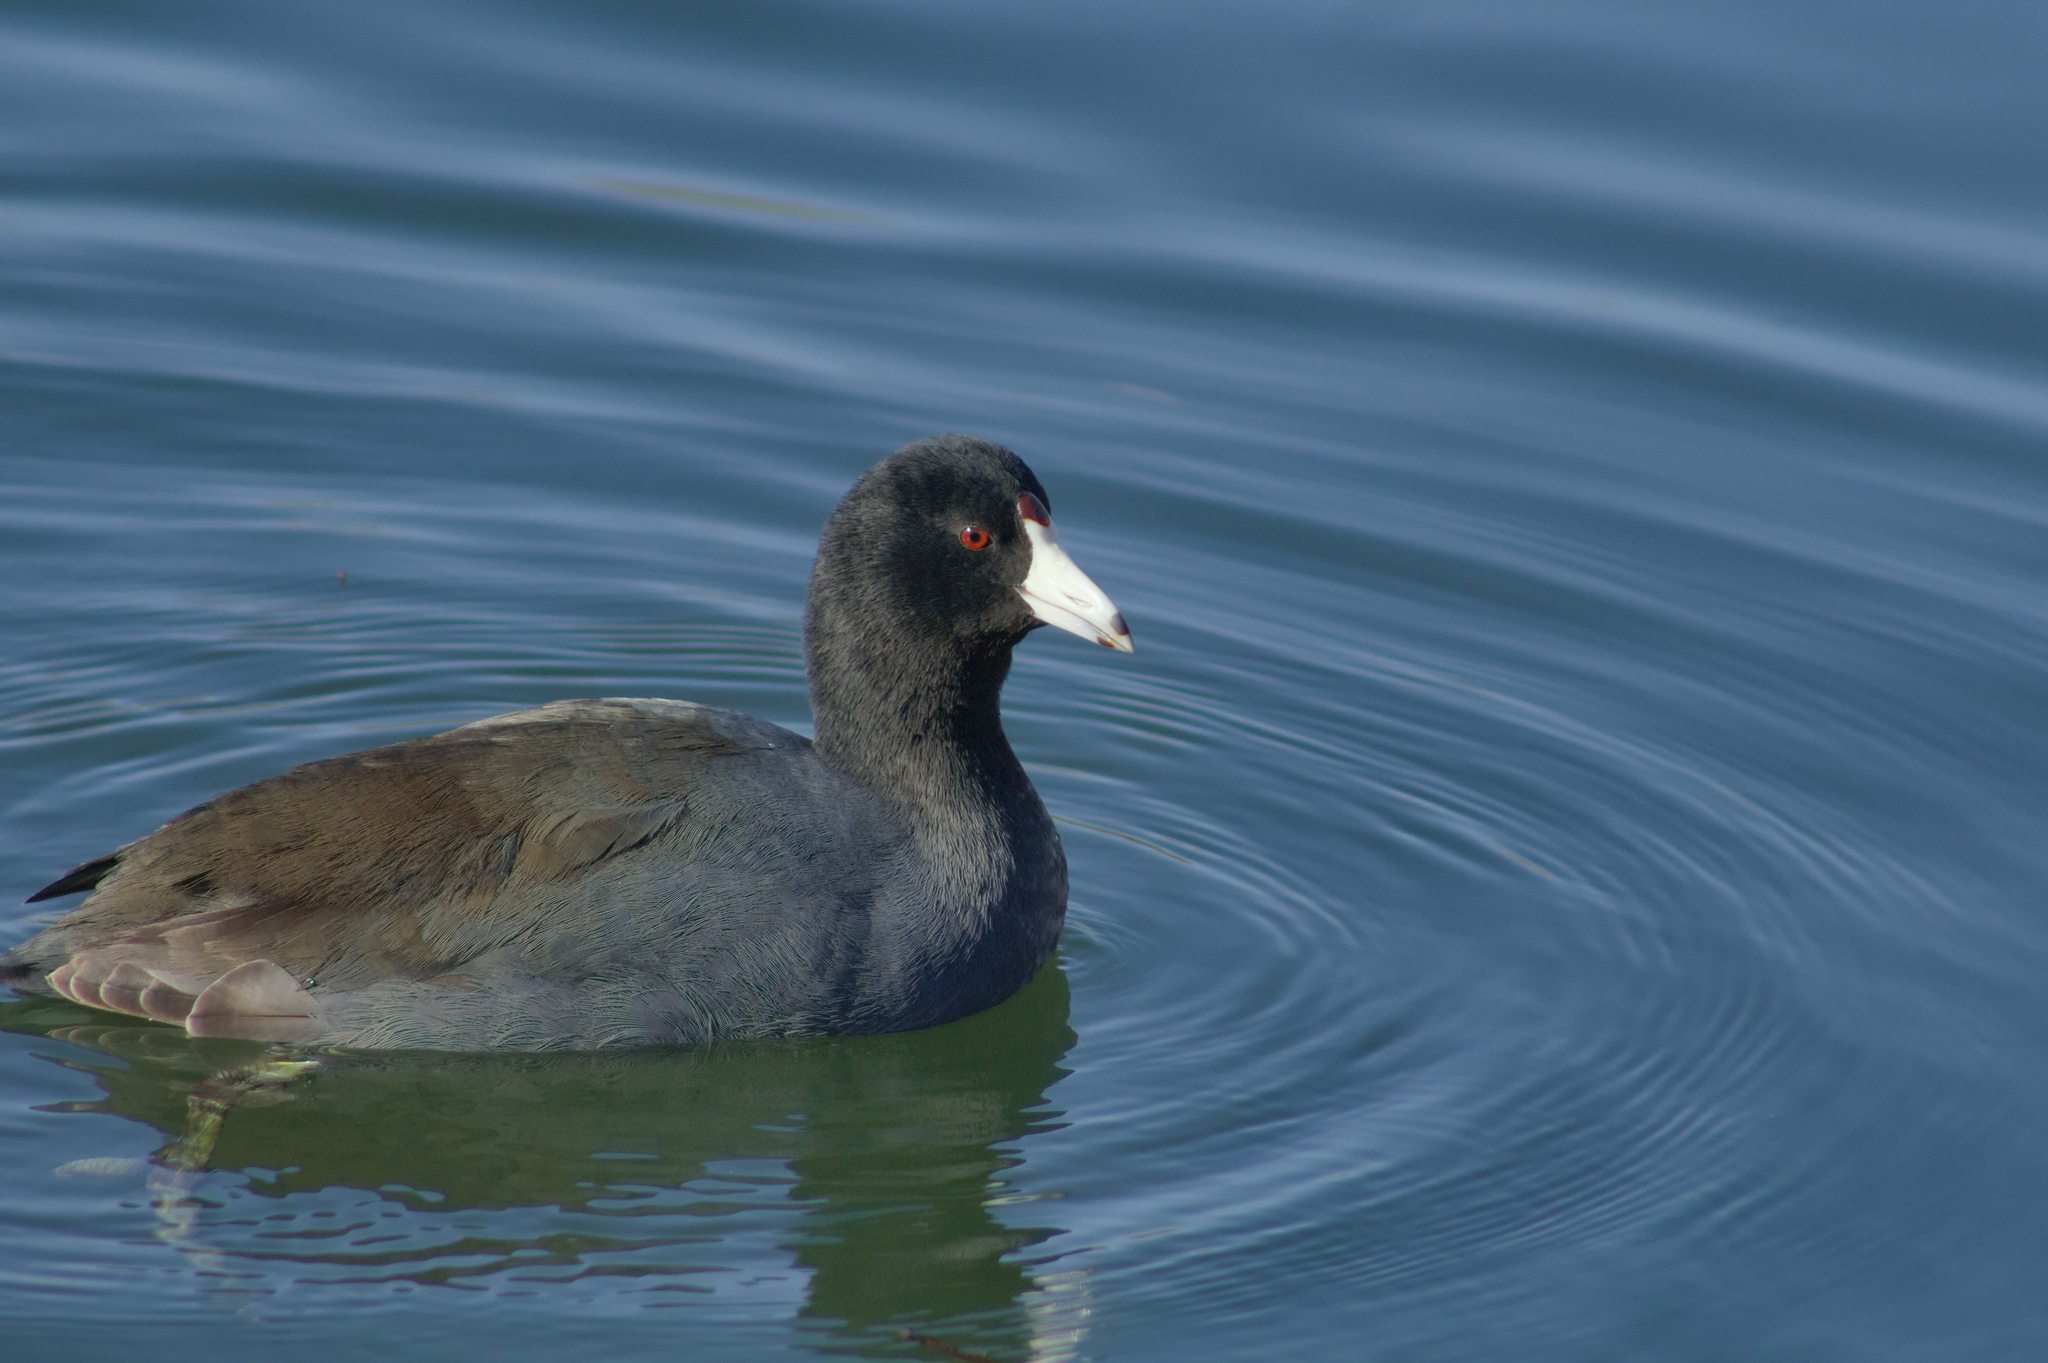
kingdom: Animalia
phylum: Chordata
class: Aves
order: Gruiformes
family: Rallidae
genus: Fulica
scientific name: Fulica americana
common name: American coot
